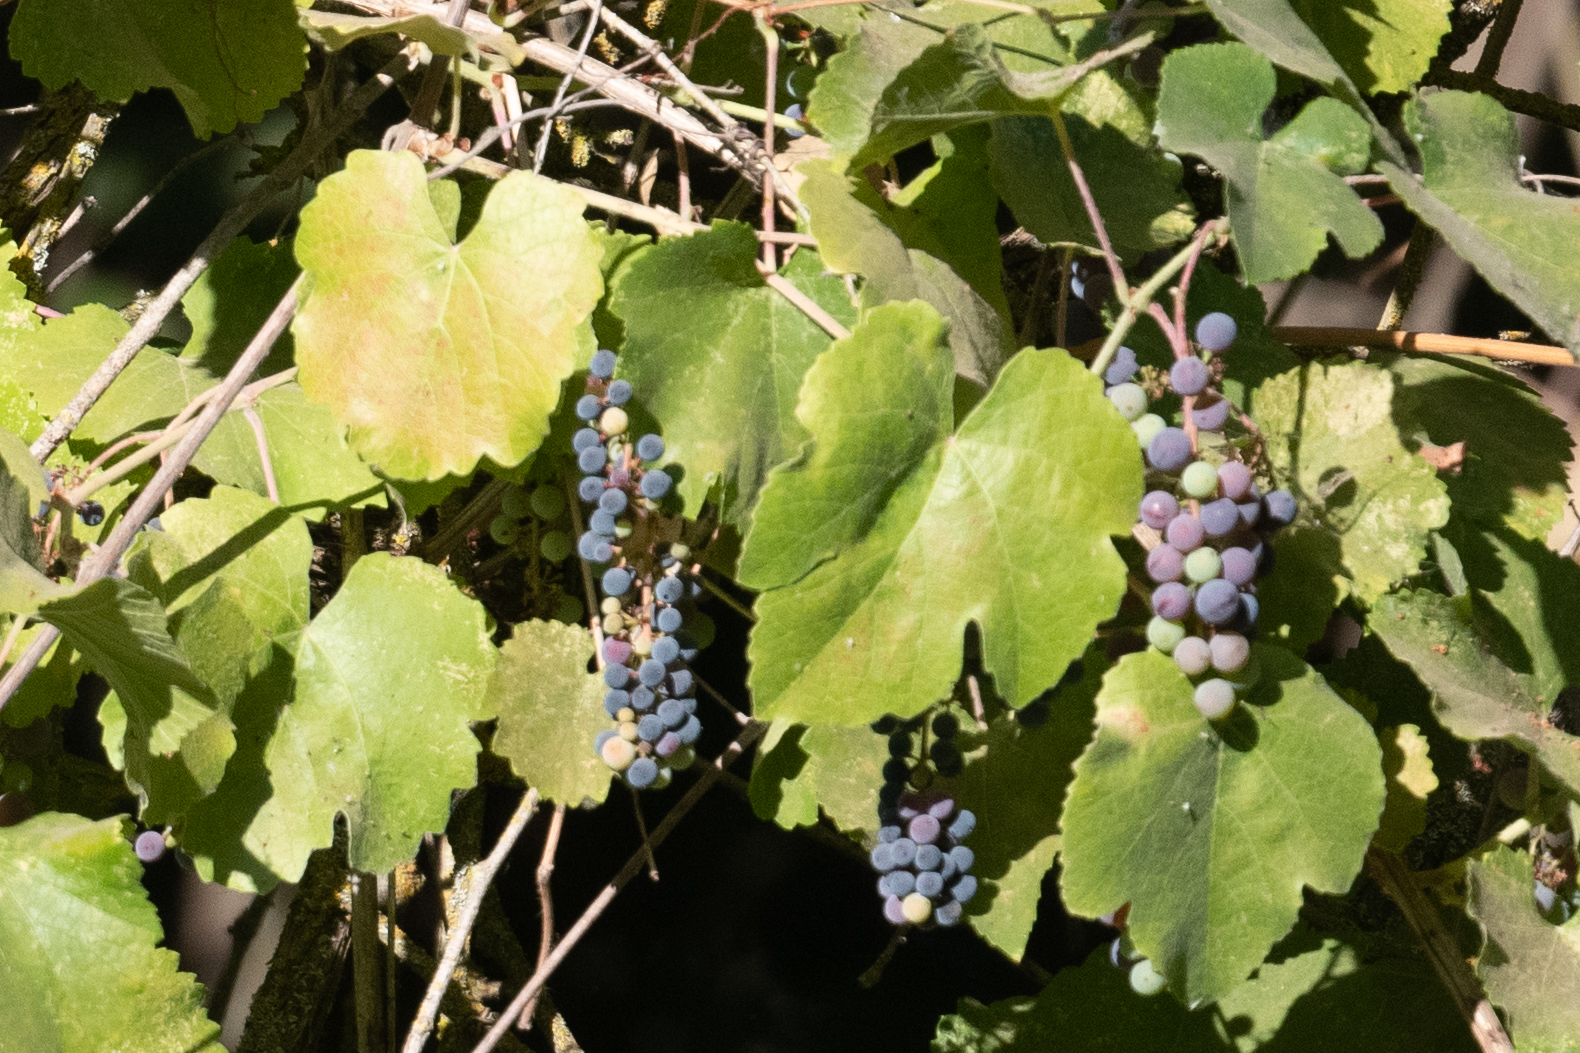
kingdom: Plantae
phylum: Tracheophyta
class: Magnoliopsida
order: Vitales
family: Vitaceae
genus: Vitis
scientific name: Vitis californica
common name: California wild grape
